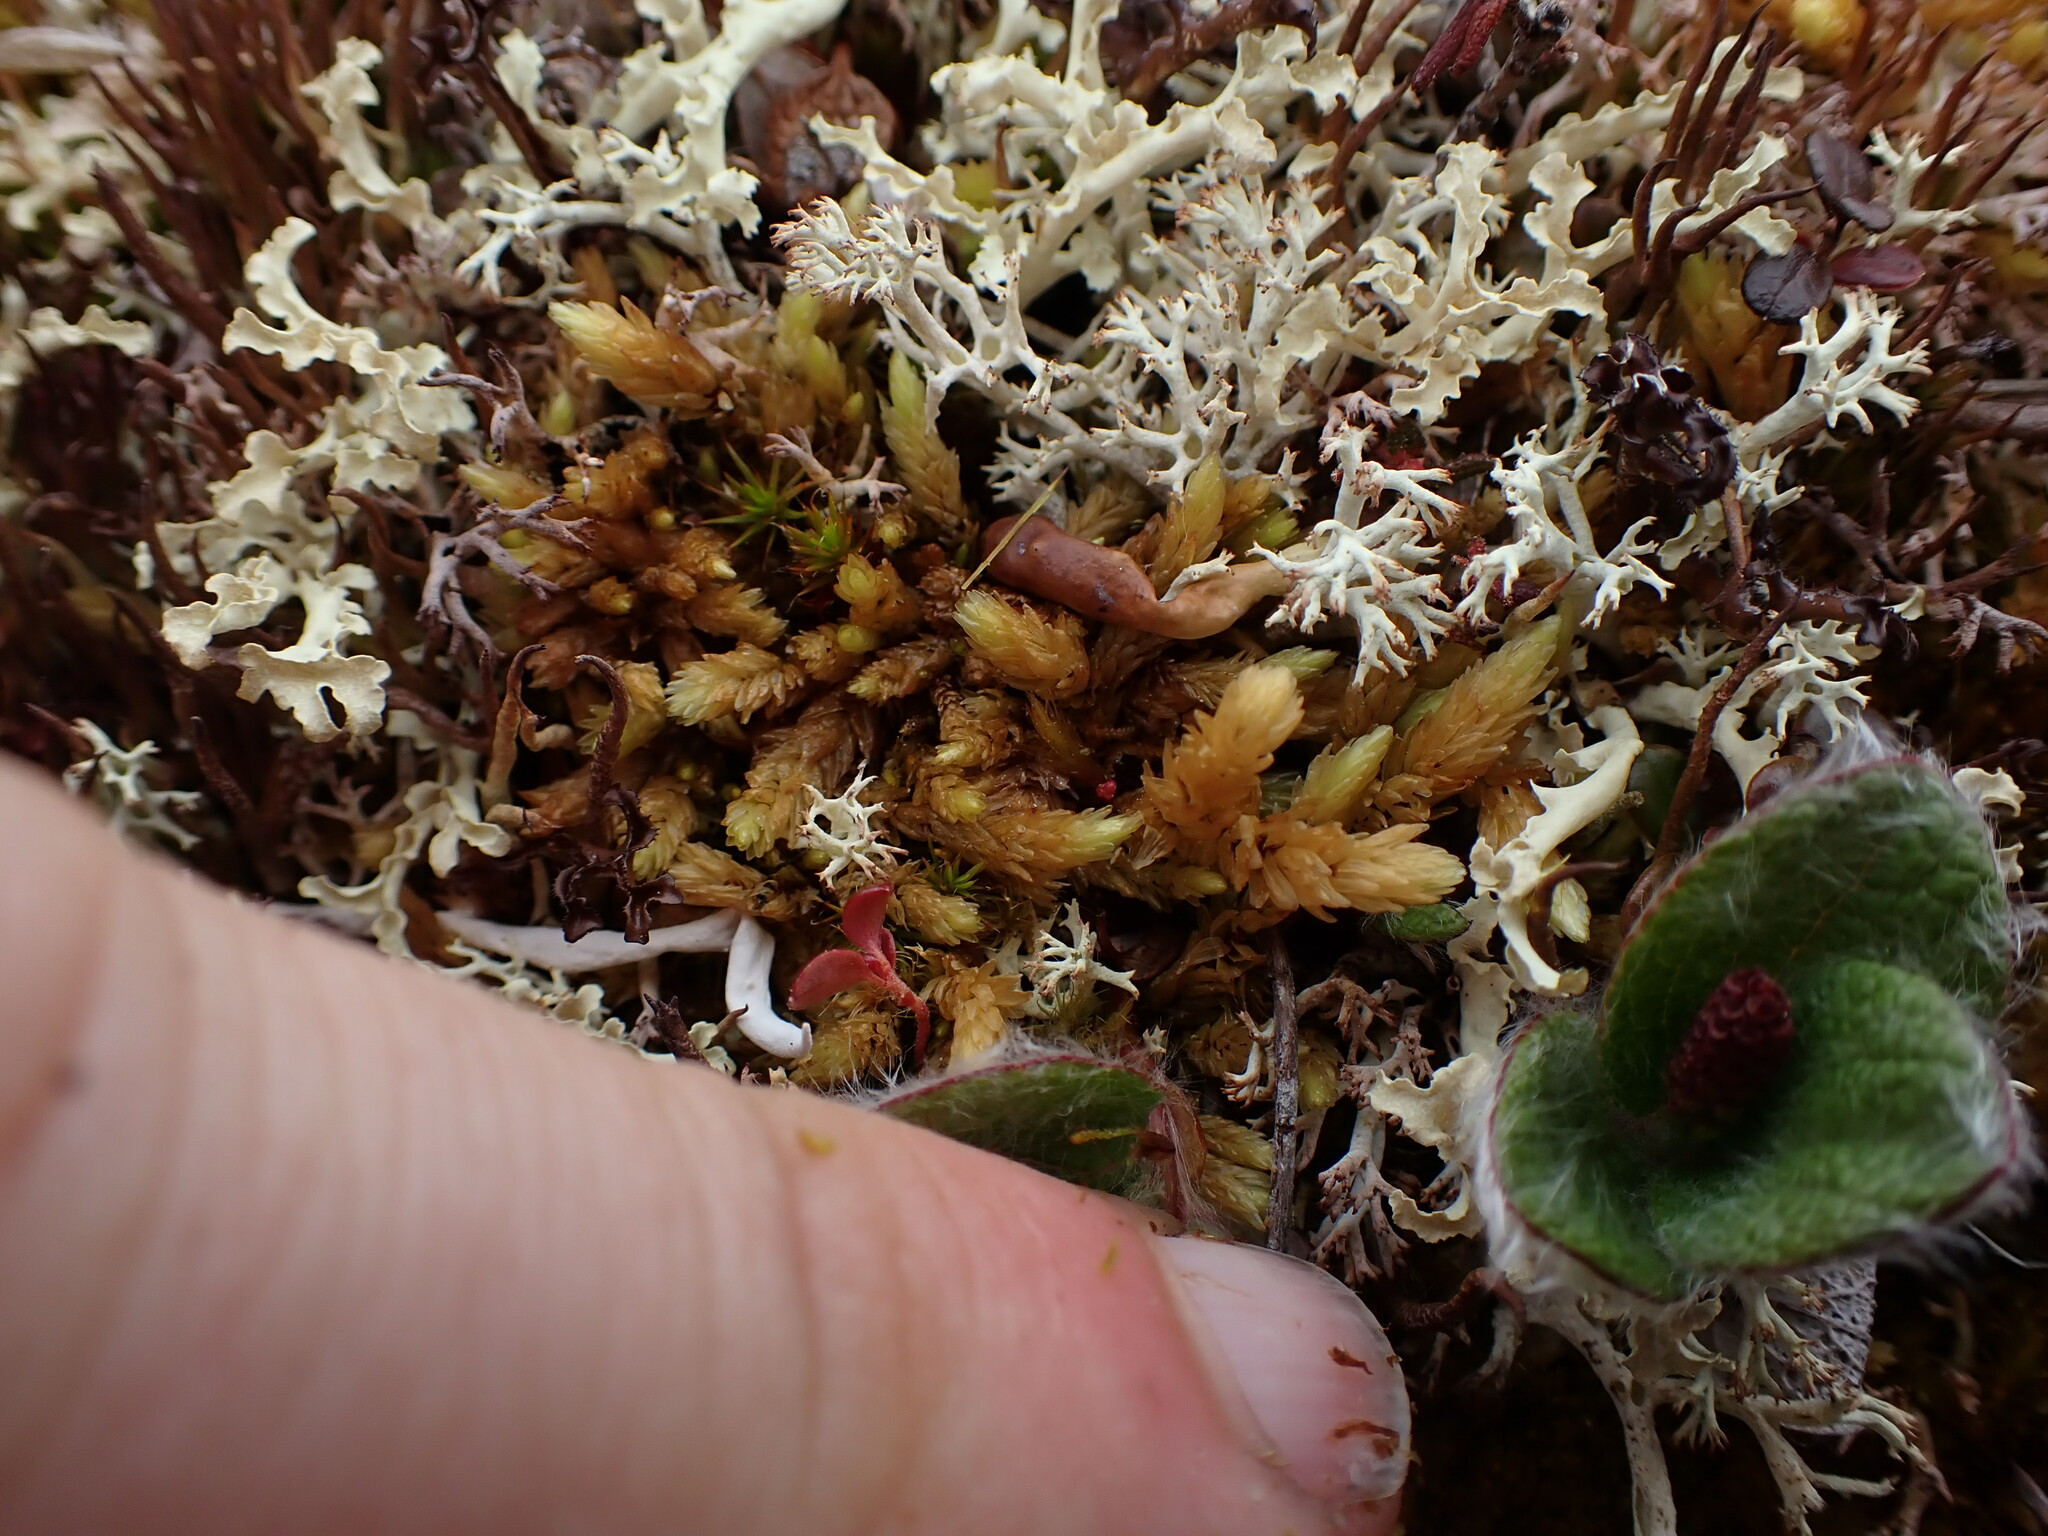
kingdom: Plantae
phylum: Bryophyta
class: Bryopsida
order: Aulacomniales
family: Aulacomniaceae
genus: Aulacomnium
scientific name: Aulacomnium turgidum
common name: Mountain groove moss
